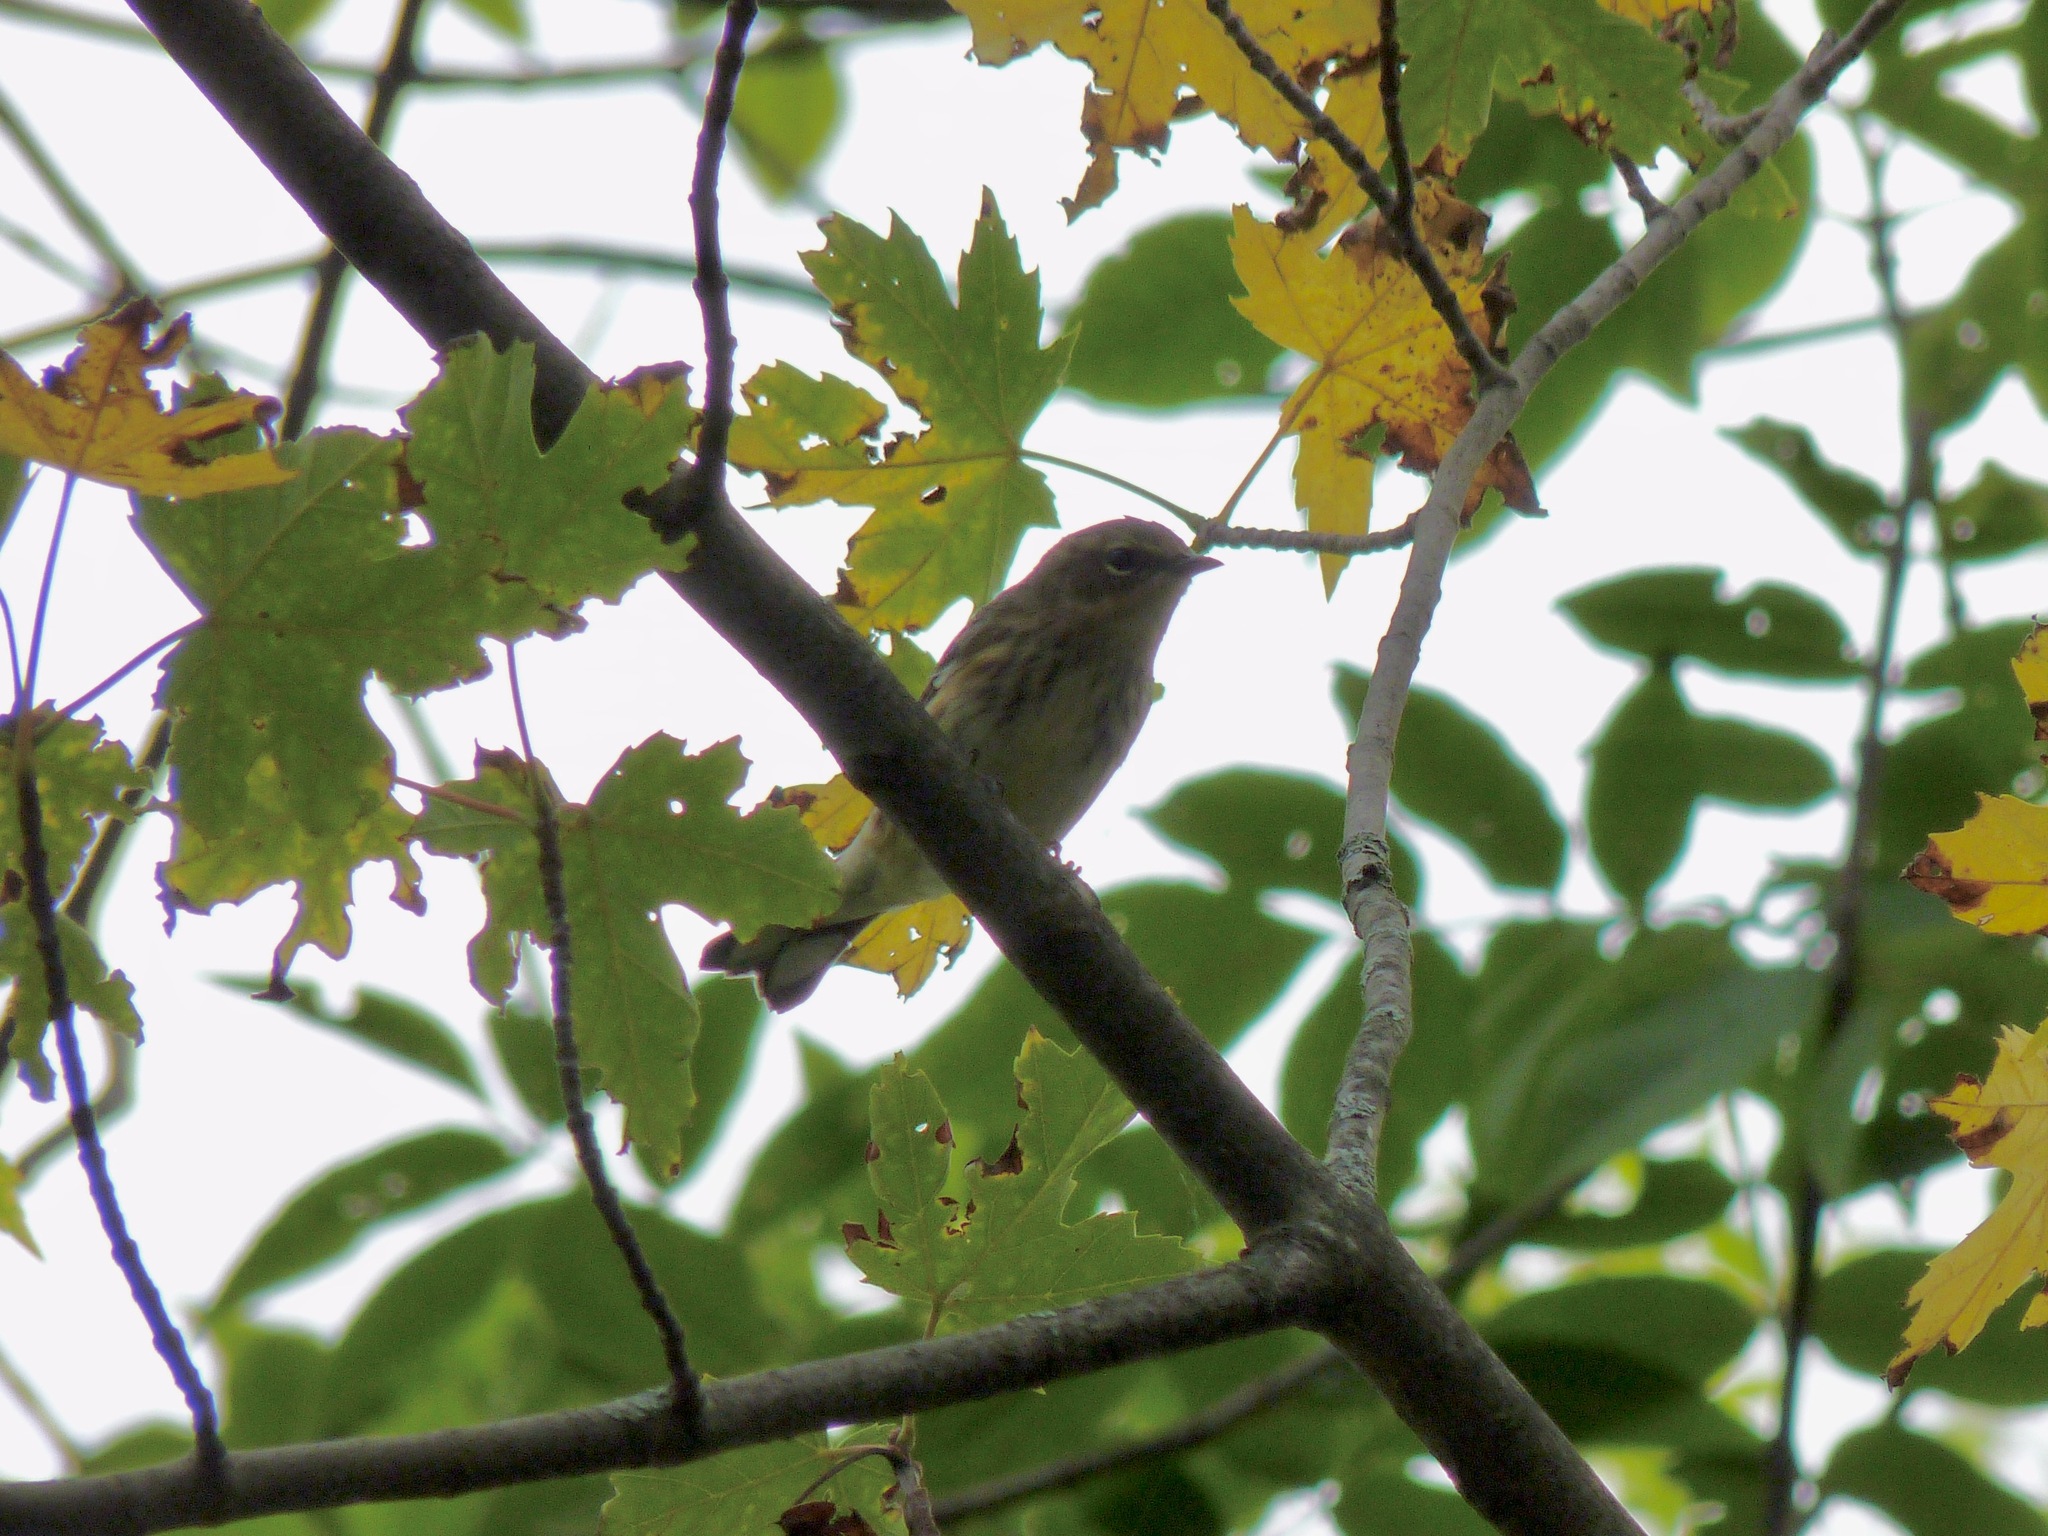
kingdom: Animalia
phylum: Chordata
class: Aves
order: Passeriformes
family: Parulidae
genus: Setophaga
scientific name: Setophaga coronata
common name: Myrtle warbler
